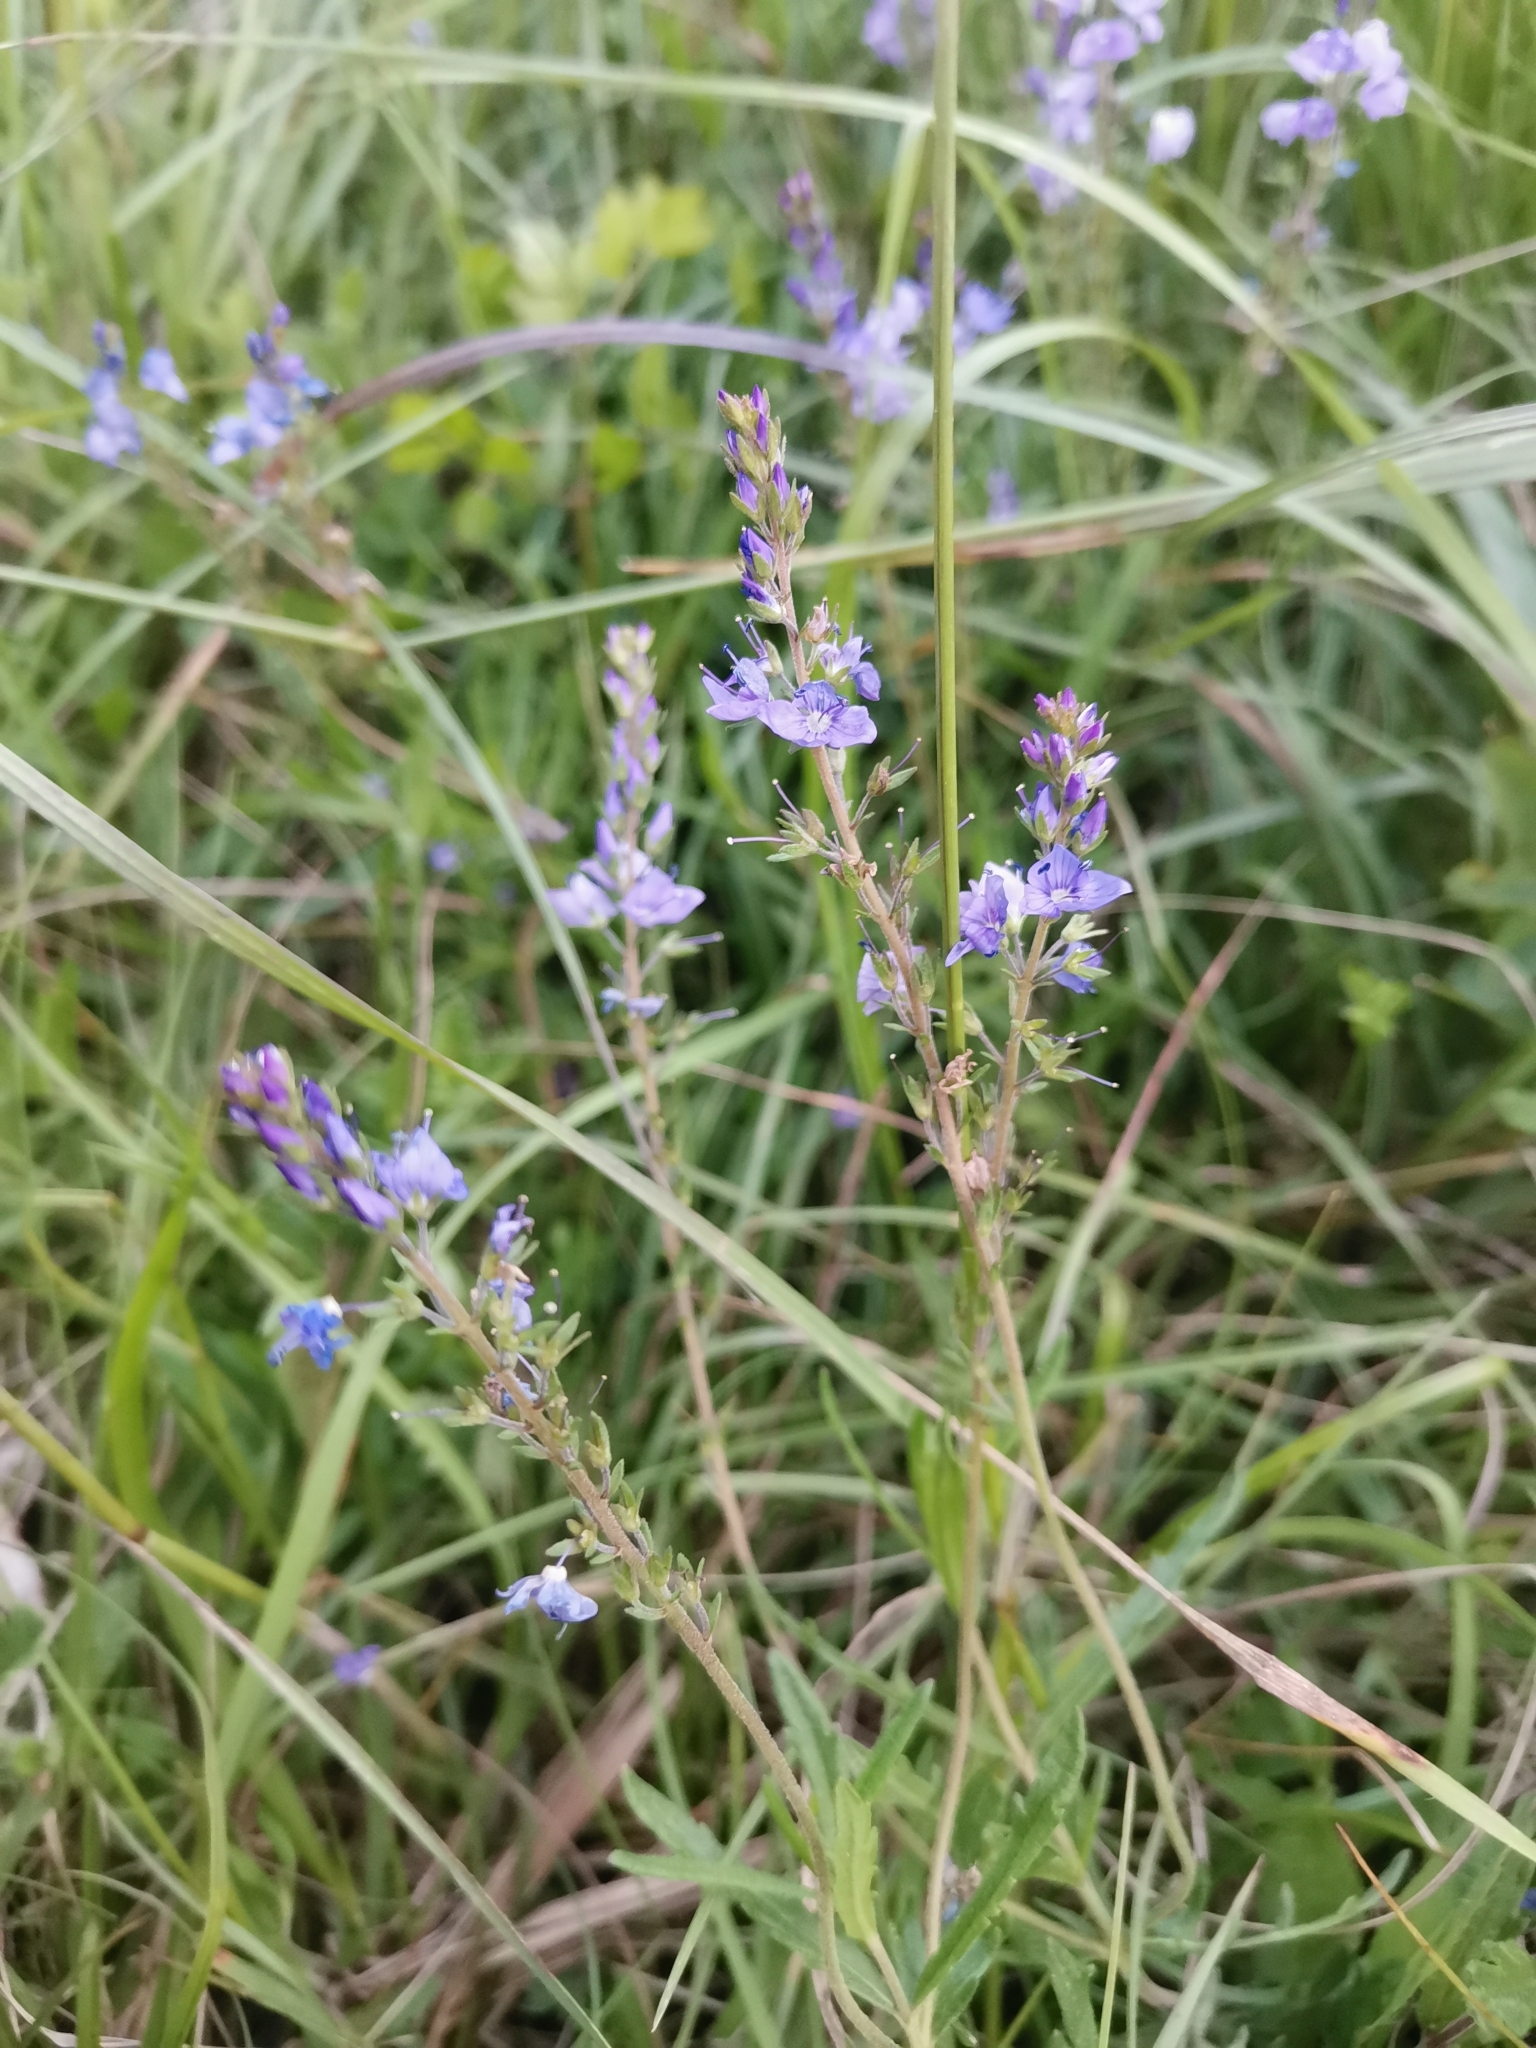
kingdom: Plantae
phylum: Tracheophyta
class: Magnoliopsida
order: Lamiales
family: Plantaginaceae
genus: Veronica
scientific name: Veronica austriaca
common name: Large speedwell
